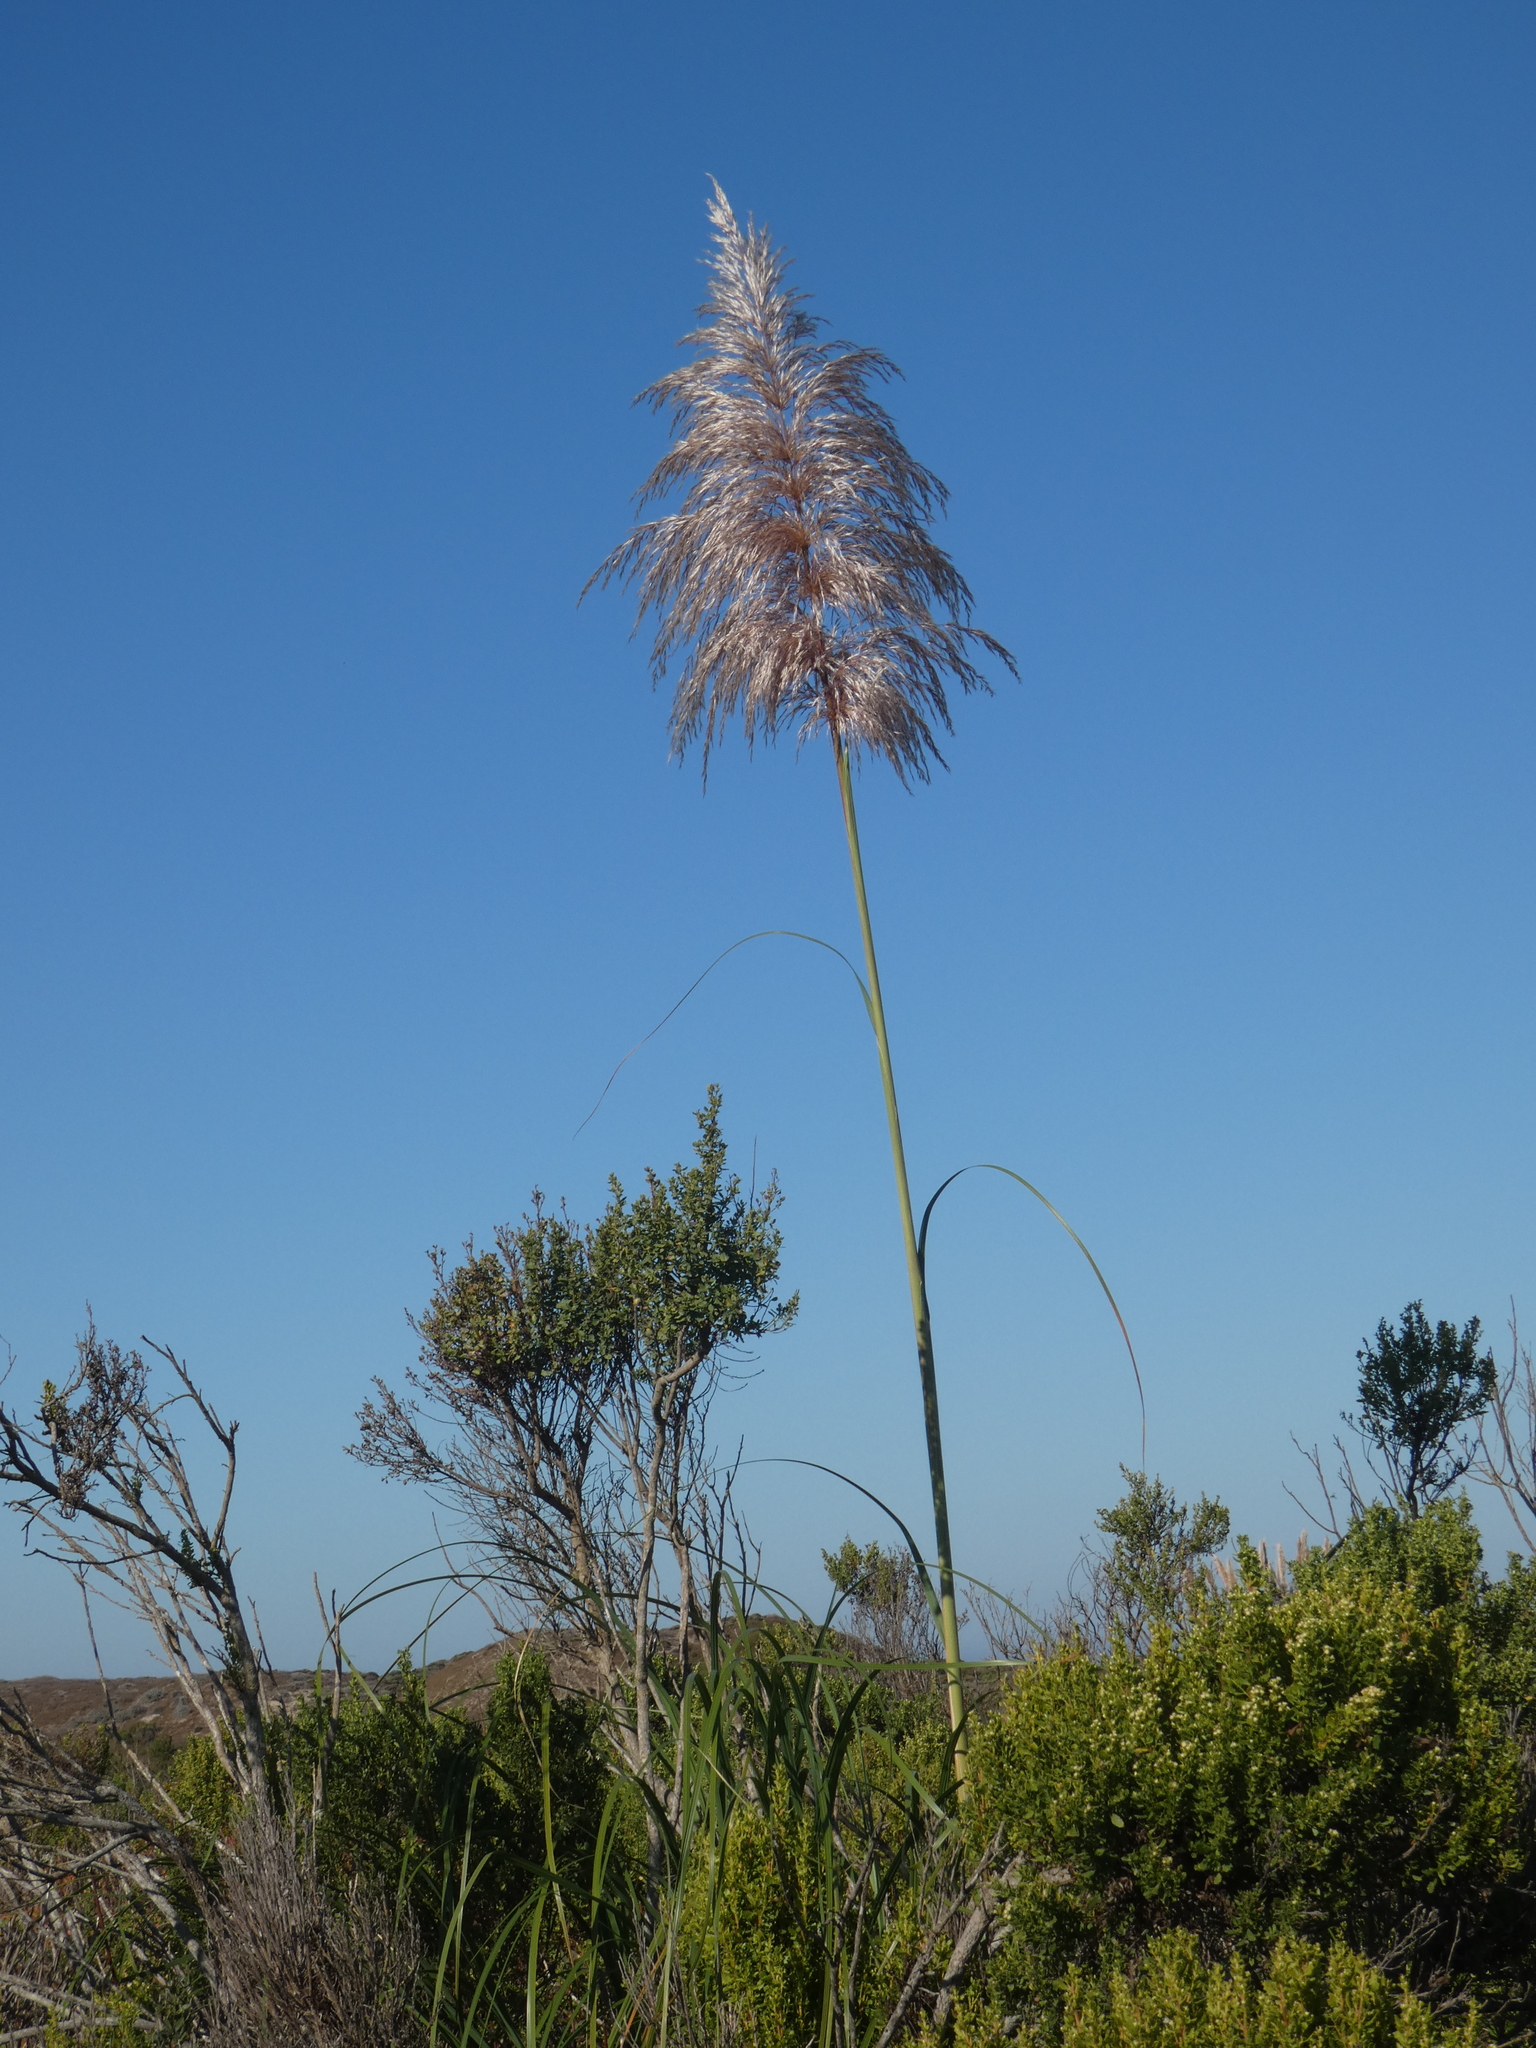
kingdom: Plantae
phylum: Tracheophyta
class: Liliopsida
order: Poales
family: Poaceae
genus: Cortaderia
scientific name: Cortaderia jubata
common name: Purple pampas grass
